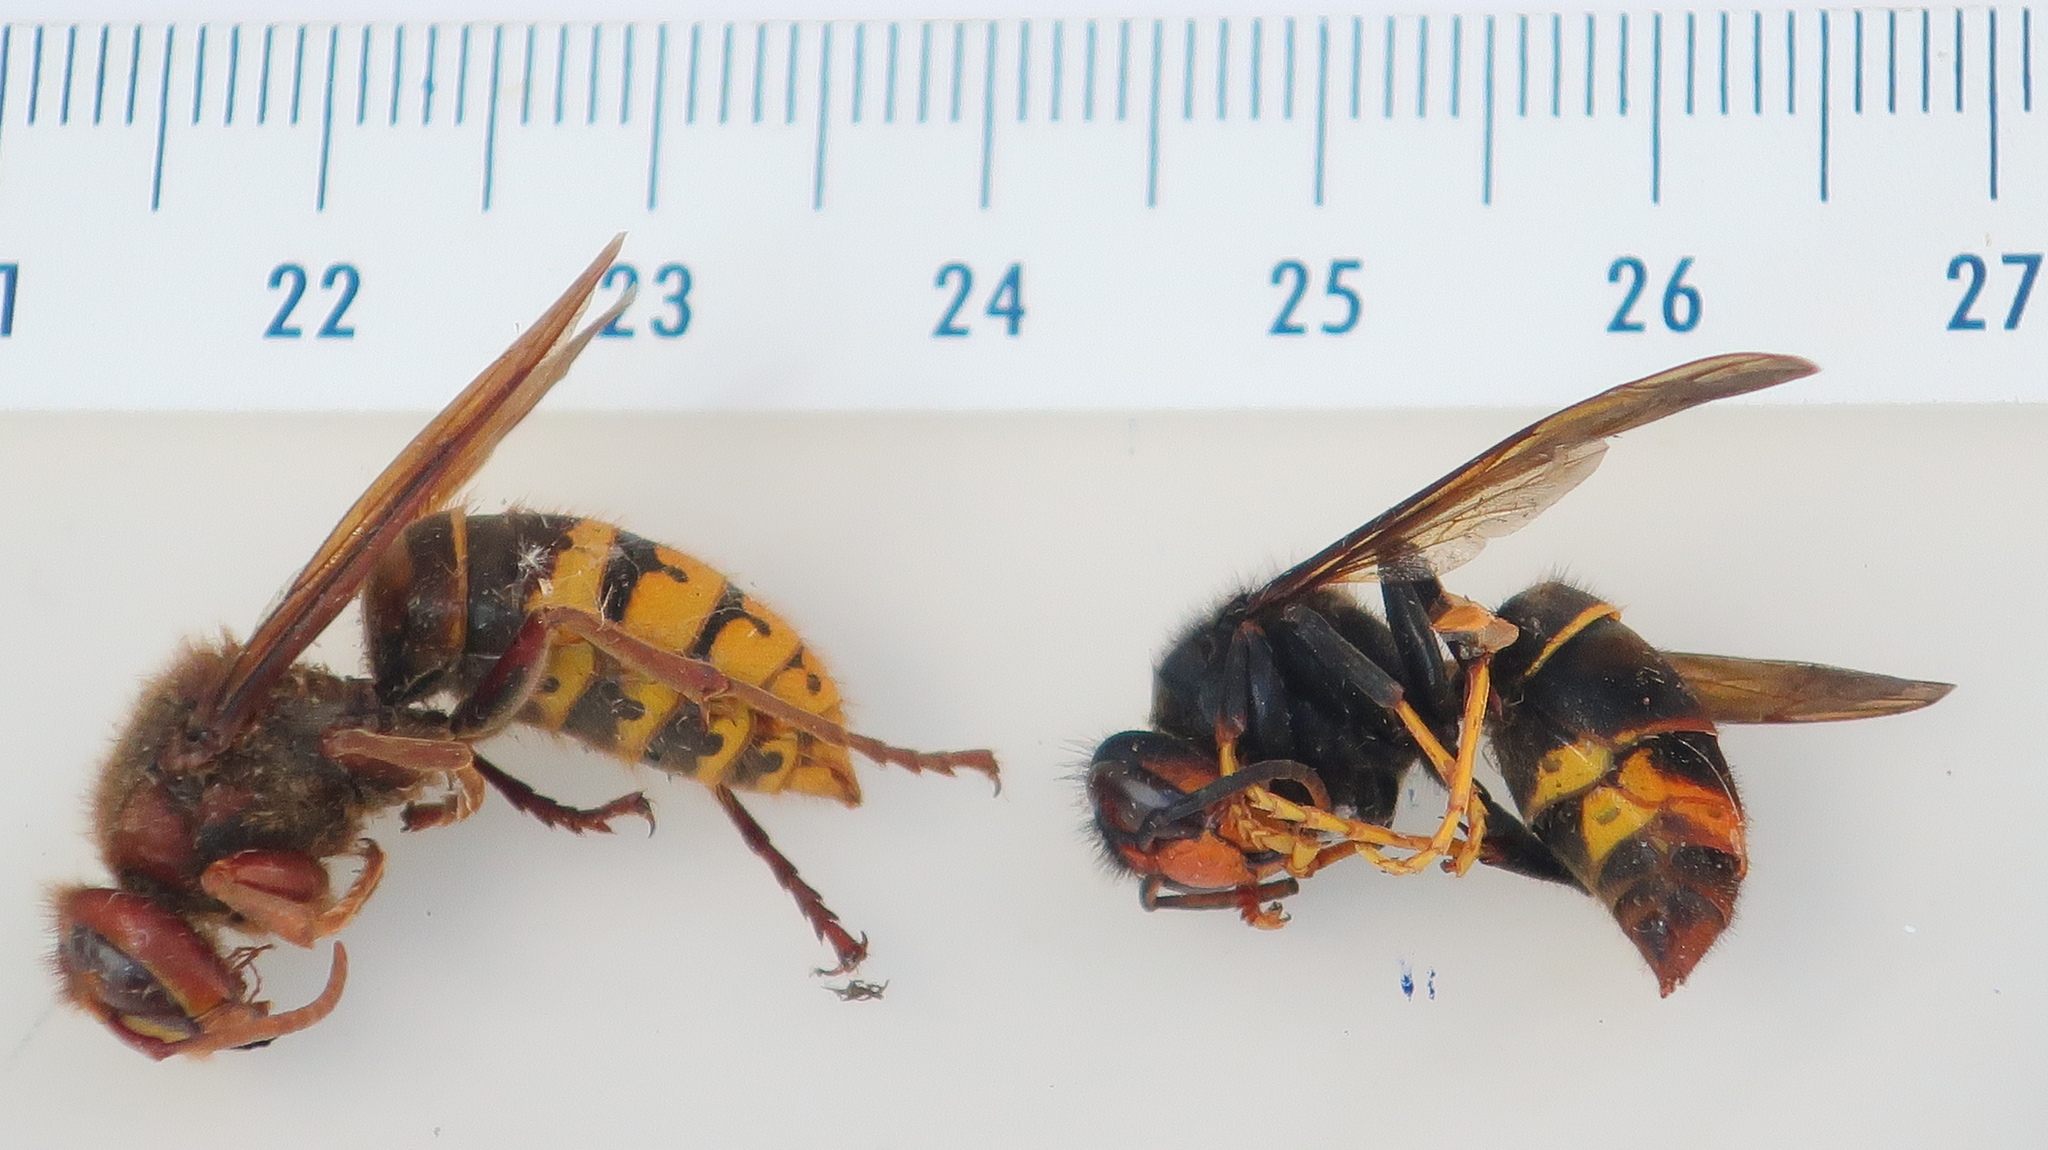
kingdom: Animalia
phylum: Arthropoda
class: Insecta
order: Hymenoptera
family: Vespidae
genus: Vespa
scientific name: Vespa velutina
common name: Asian hornet
